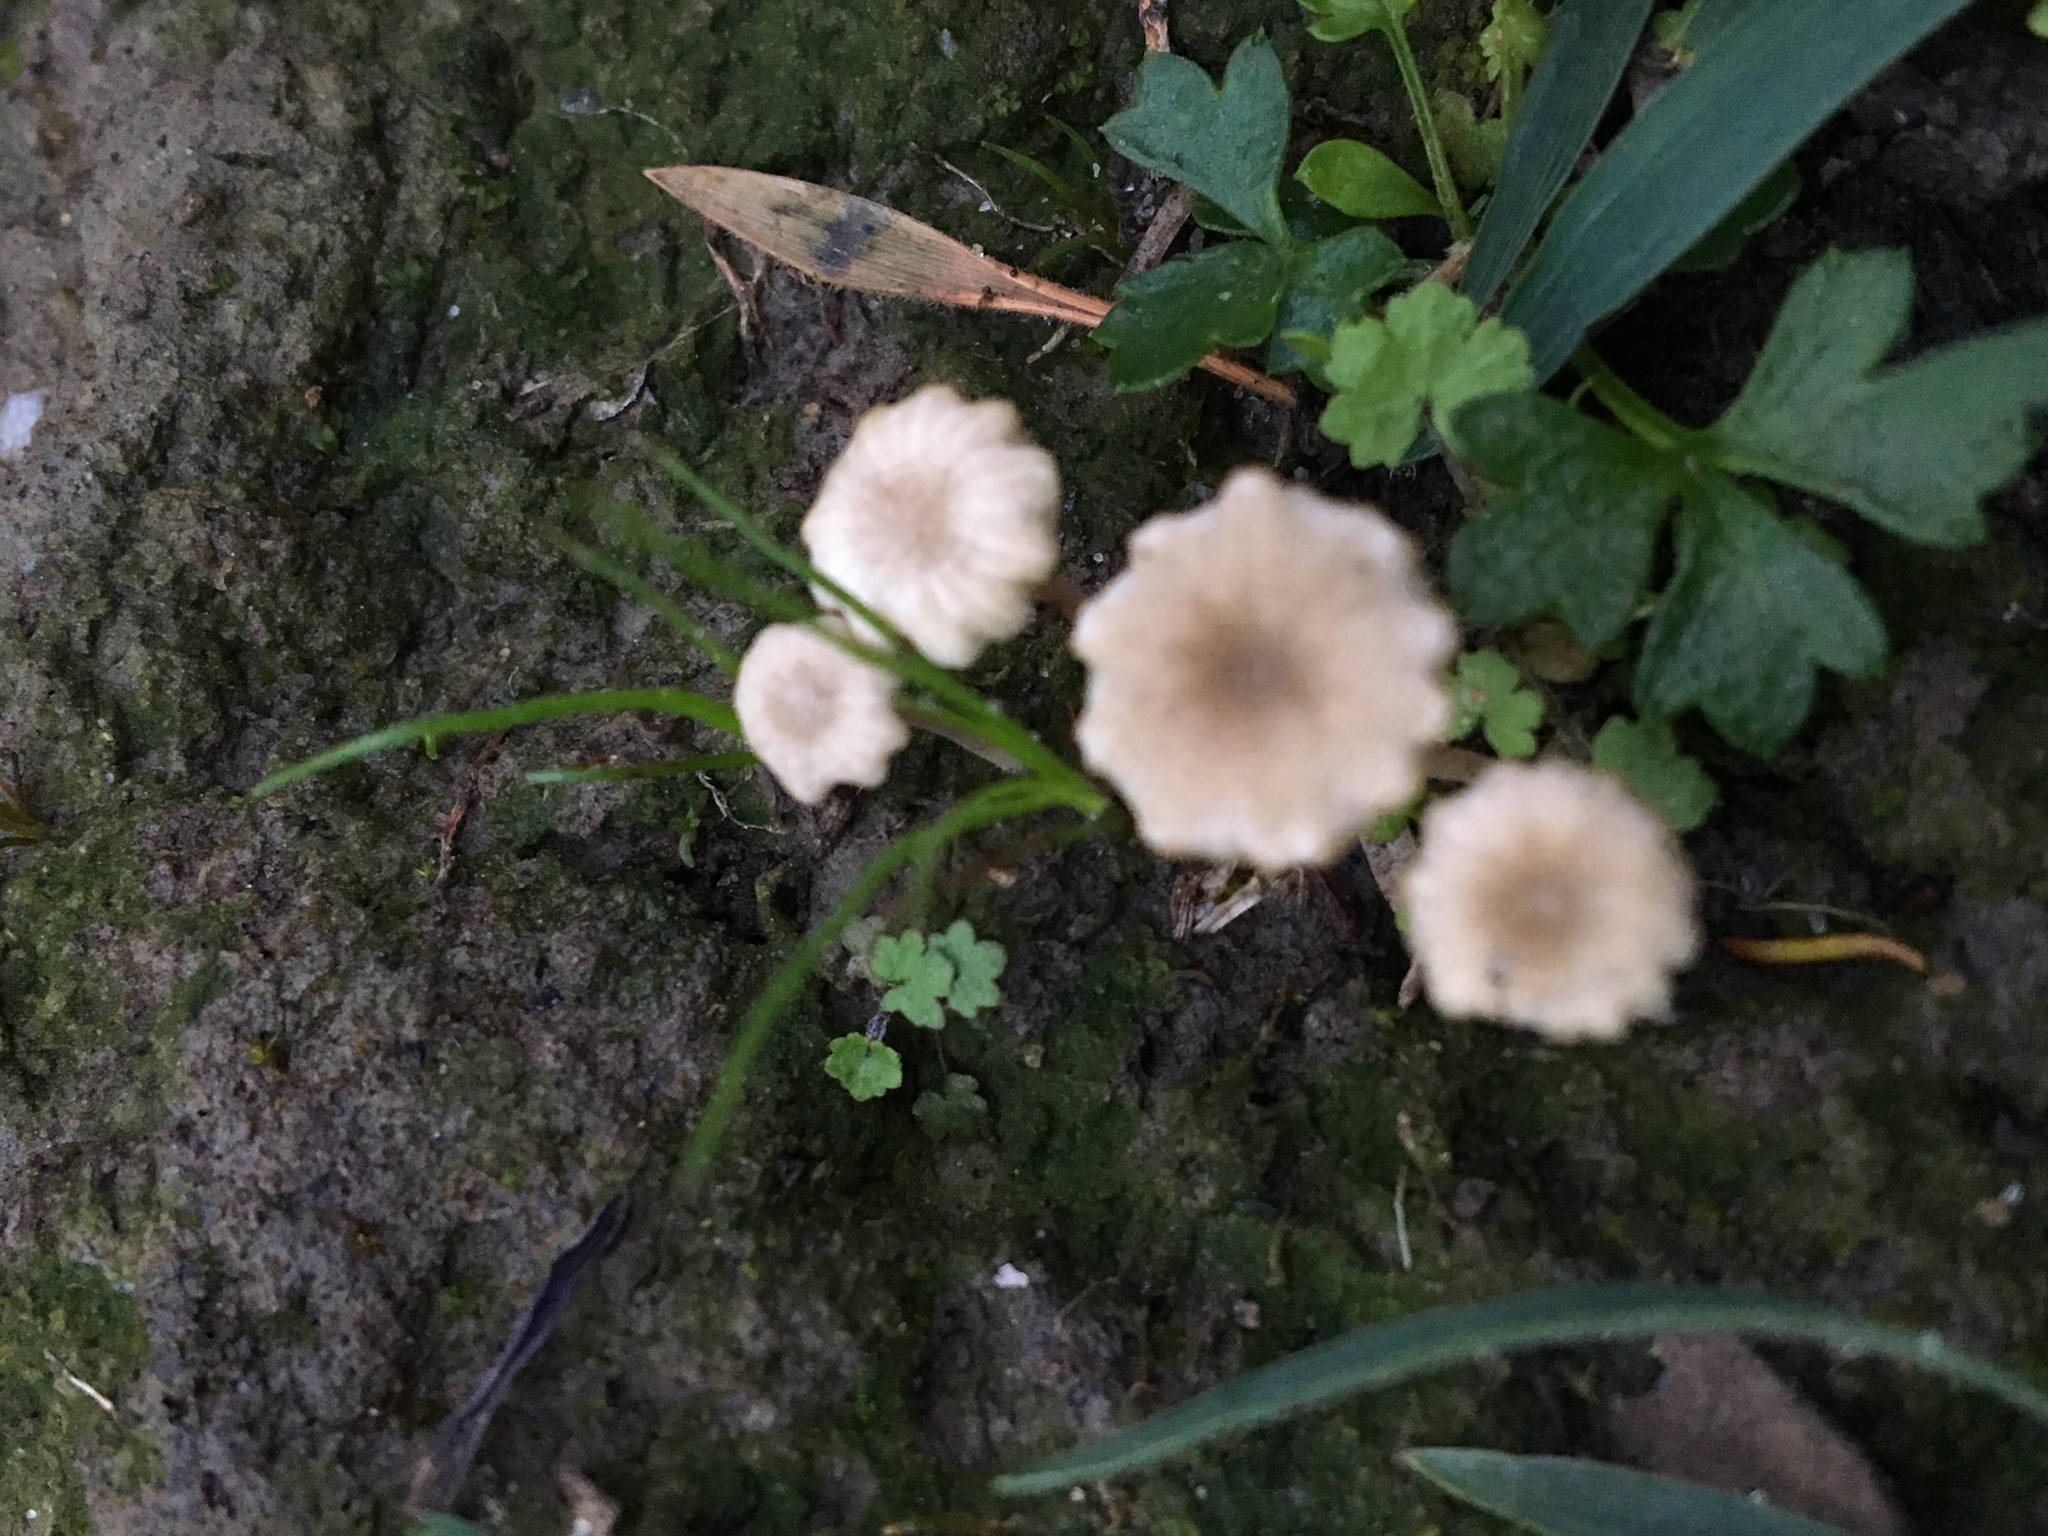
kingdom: Fungi
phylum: Basidiomycota
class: Agaricomycetes
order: Agaricales
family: Hygrophoraceae
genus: Lichenomphalia
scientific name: Lichenomphalia
